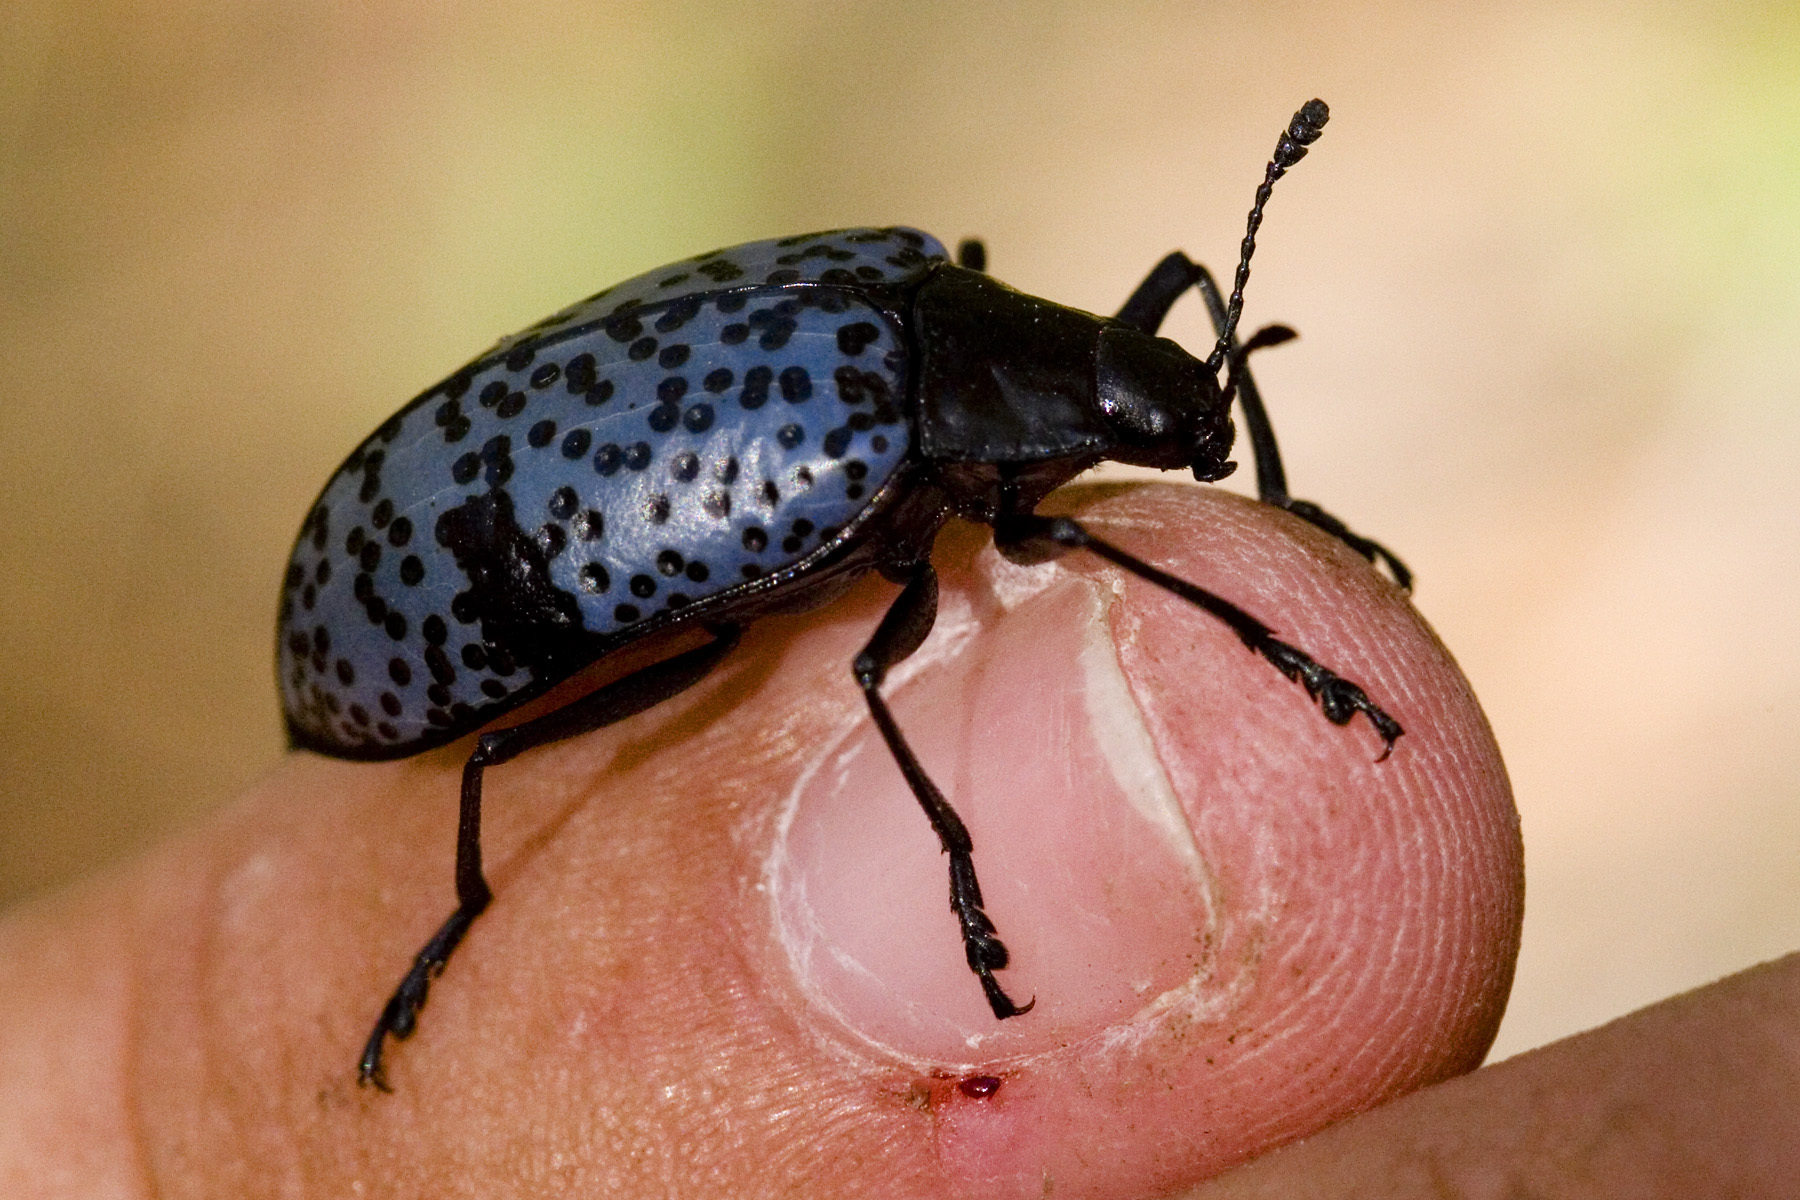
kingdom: Animalia
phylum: Arthropoda
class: Insecta
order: Coleoptera
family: Erotylidae
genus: Gibbifer
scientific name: Gibbifer californicus
